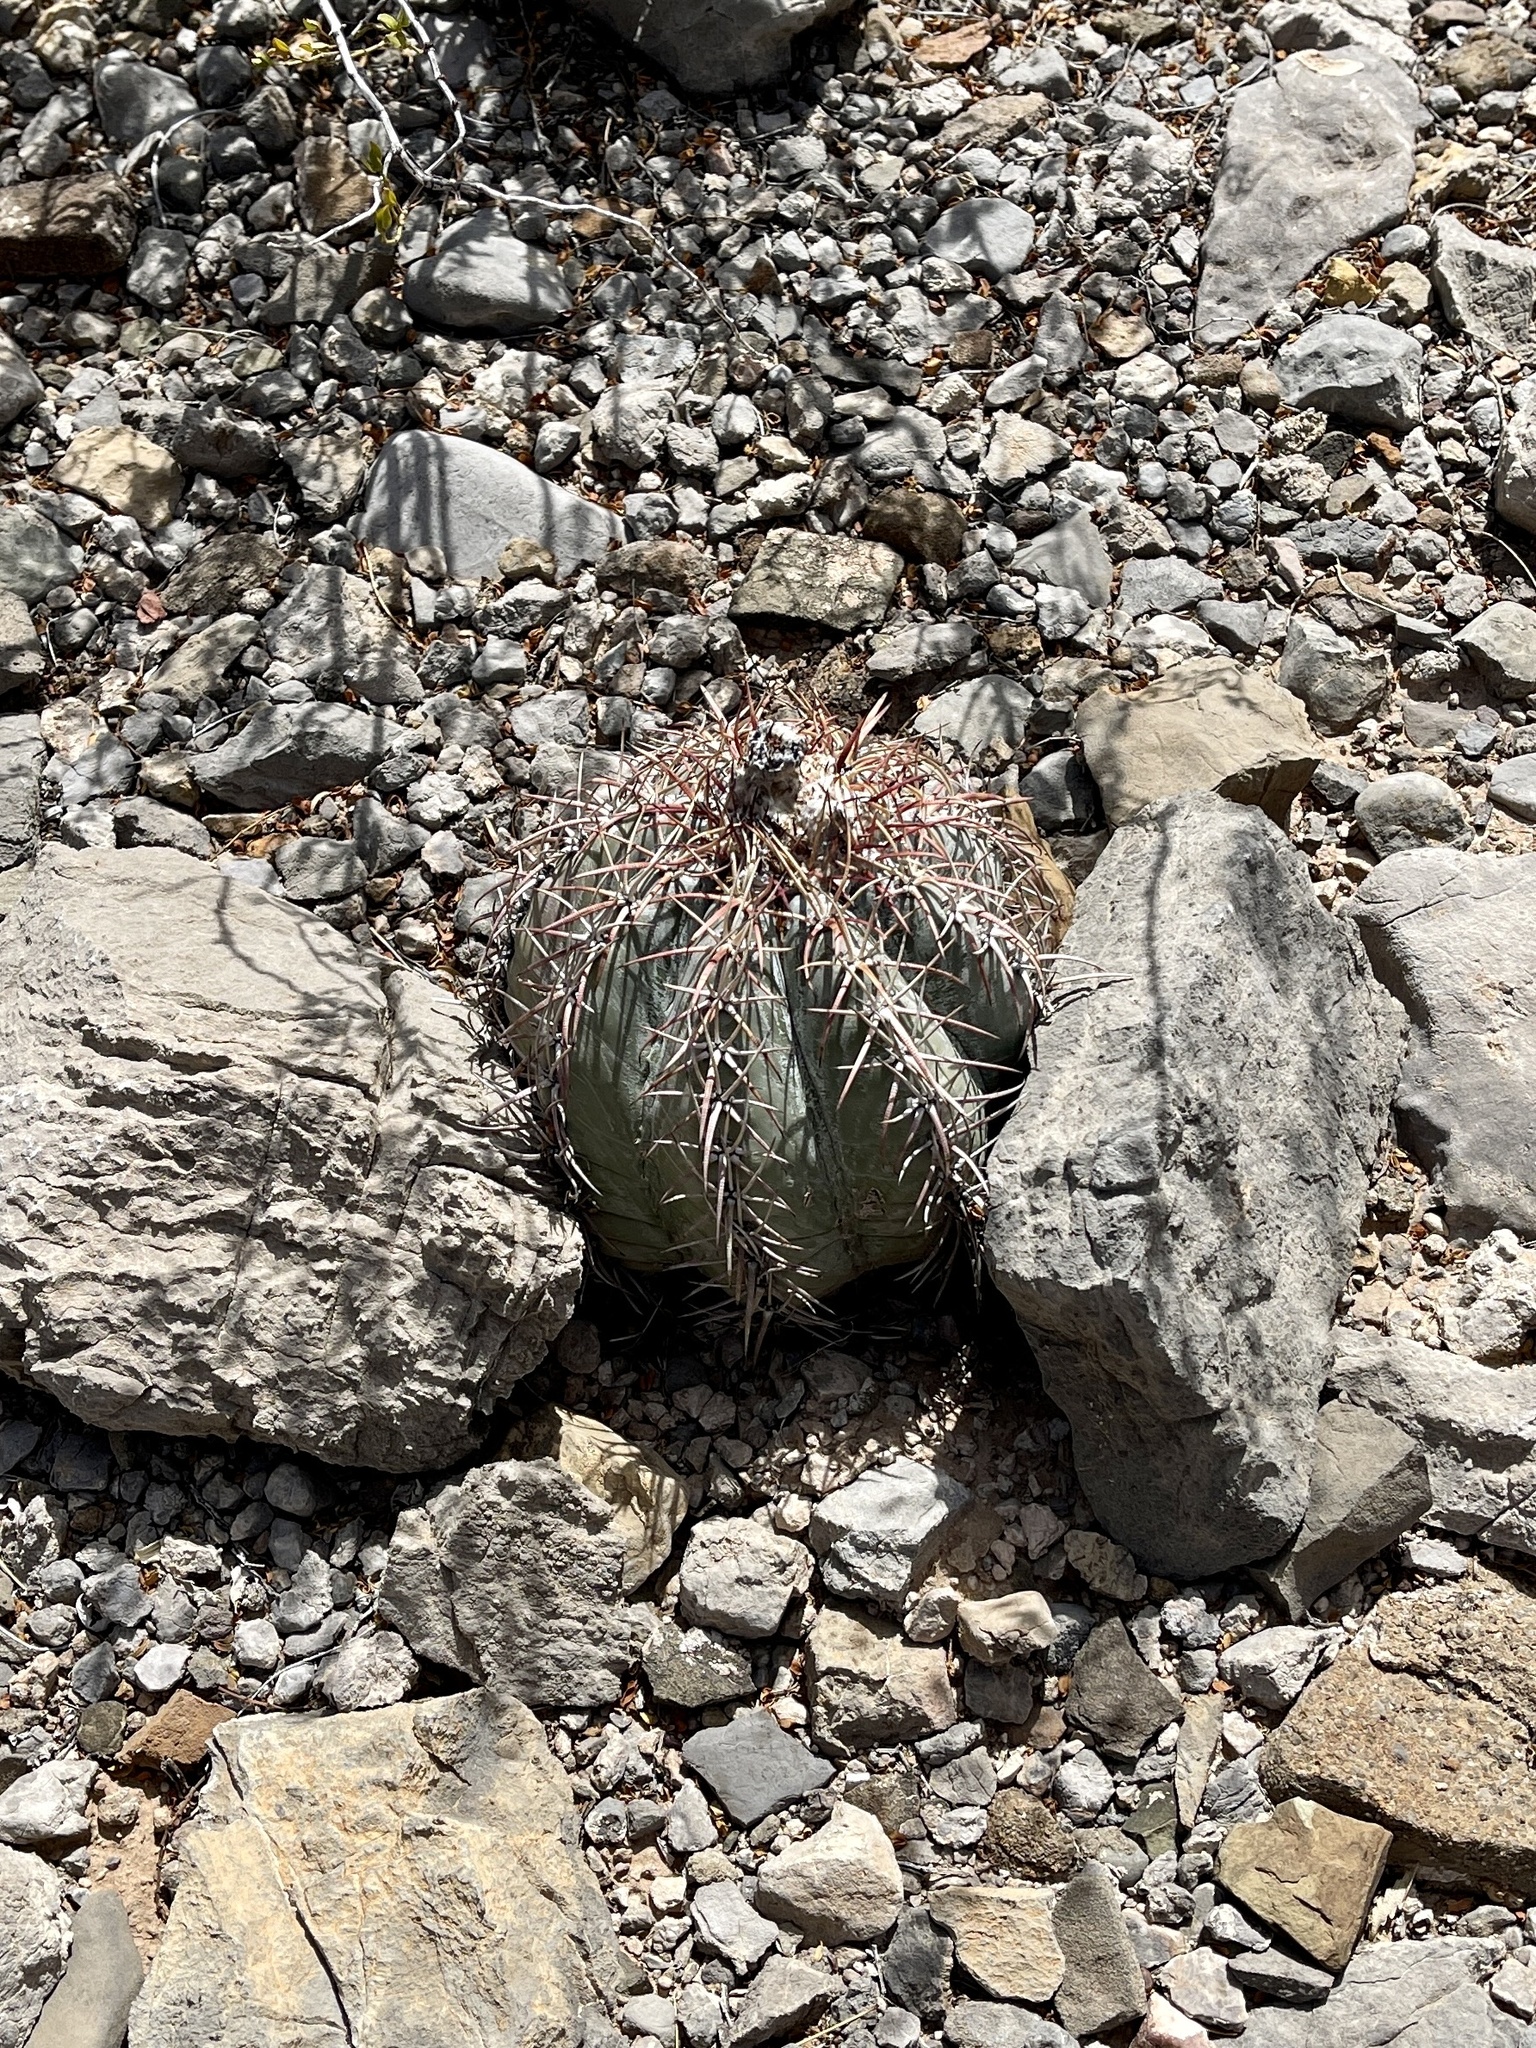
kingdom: Plantae
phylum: Tracheophyta
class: Magnoliopsida
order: Caryophyllales
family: Cactaceae
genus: Echinocactus
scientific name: Echinocactus horizonthalonius
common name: Devilshead
